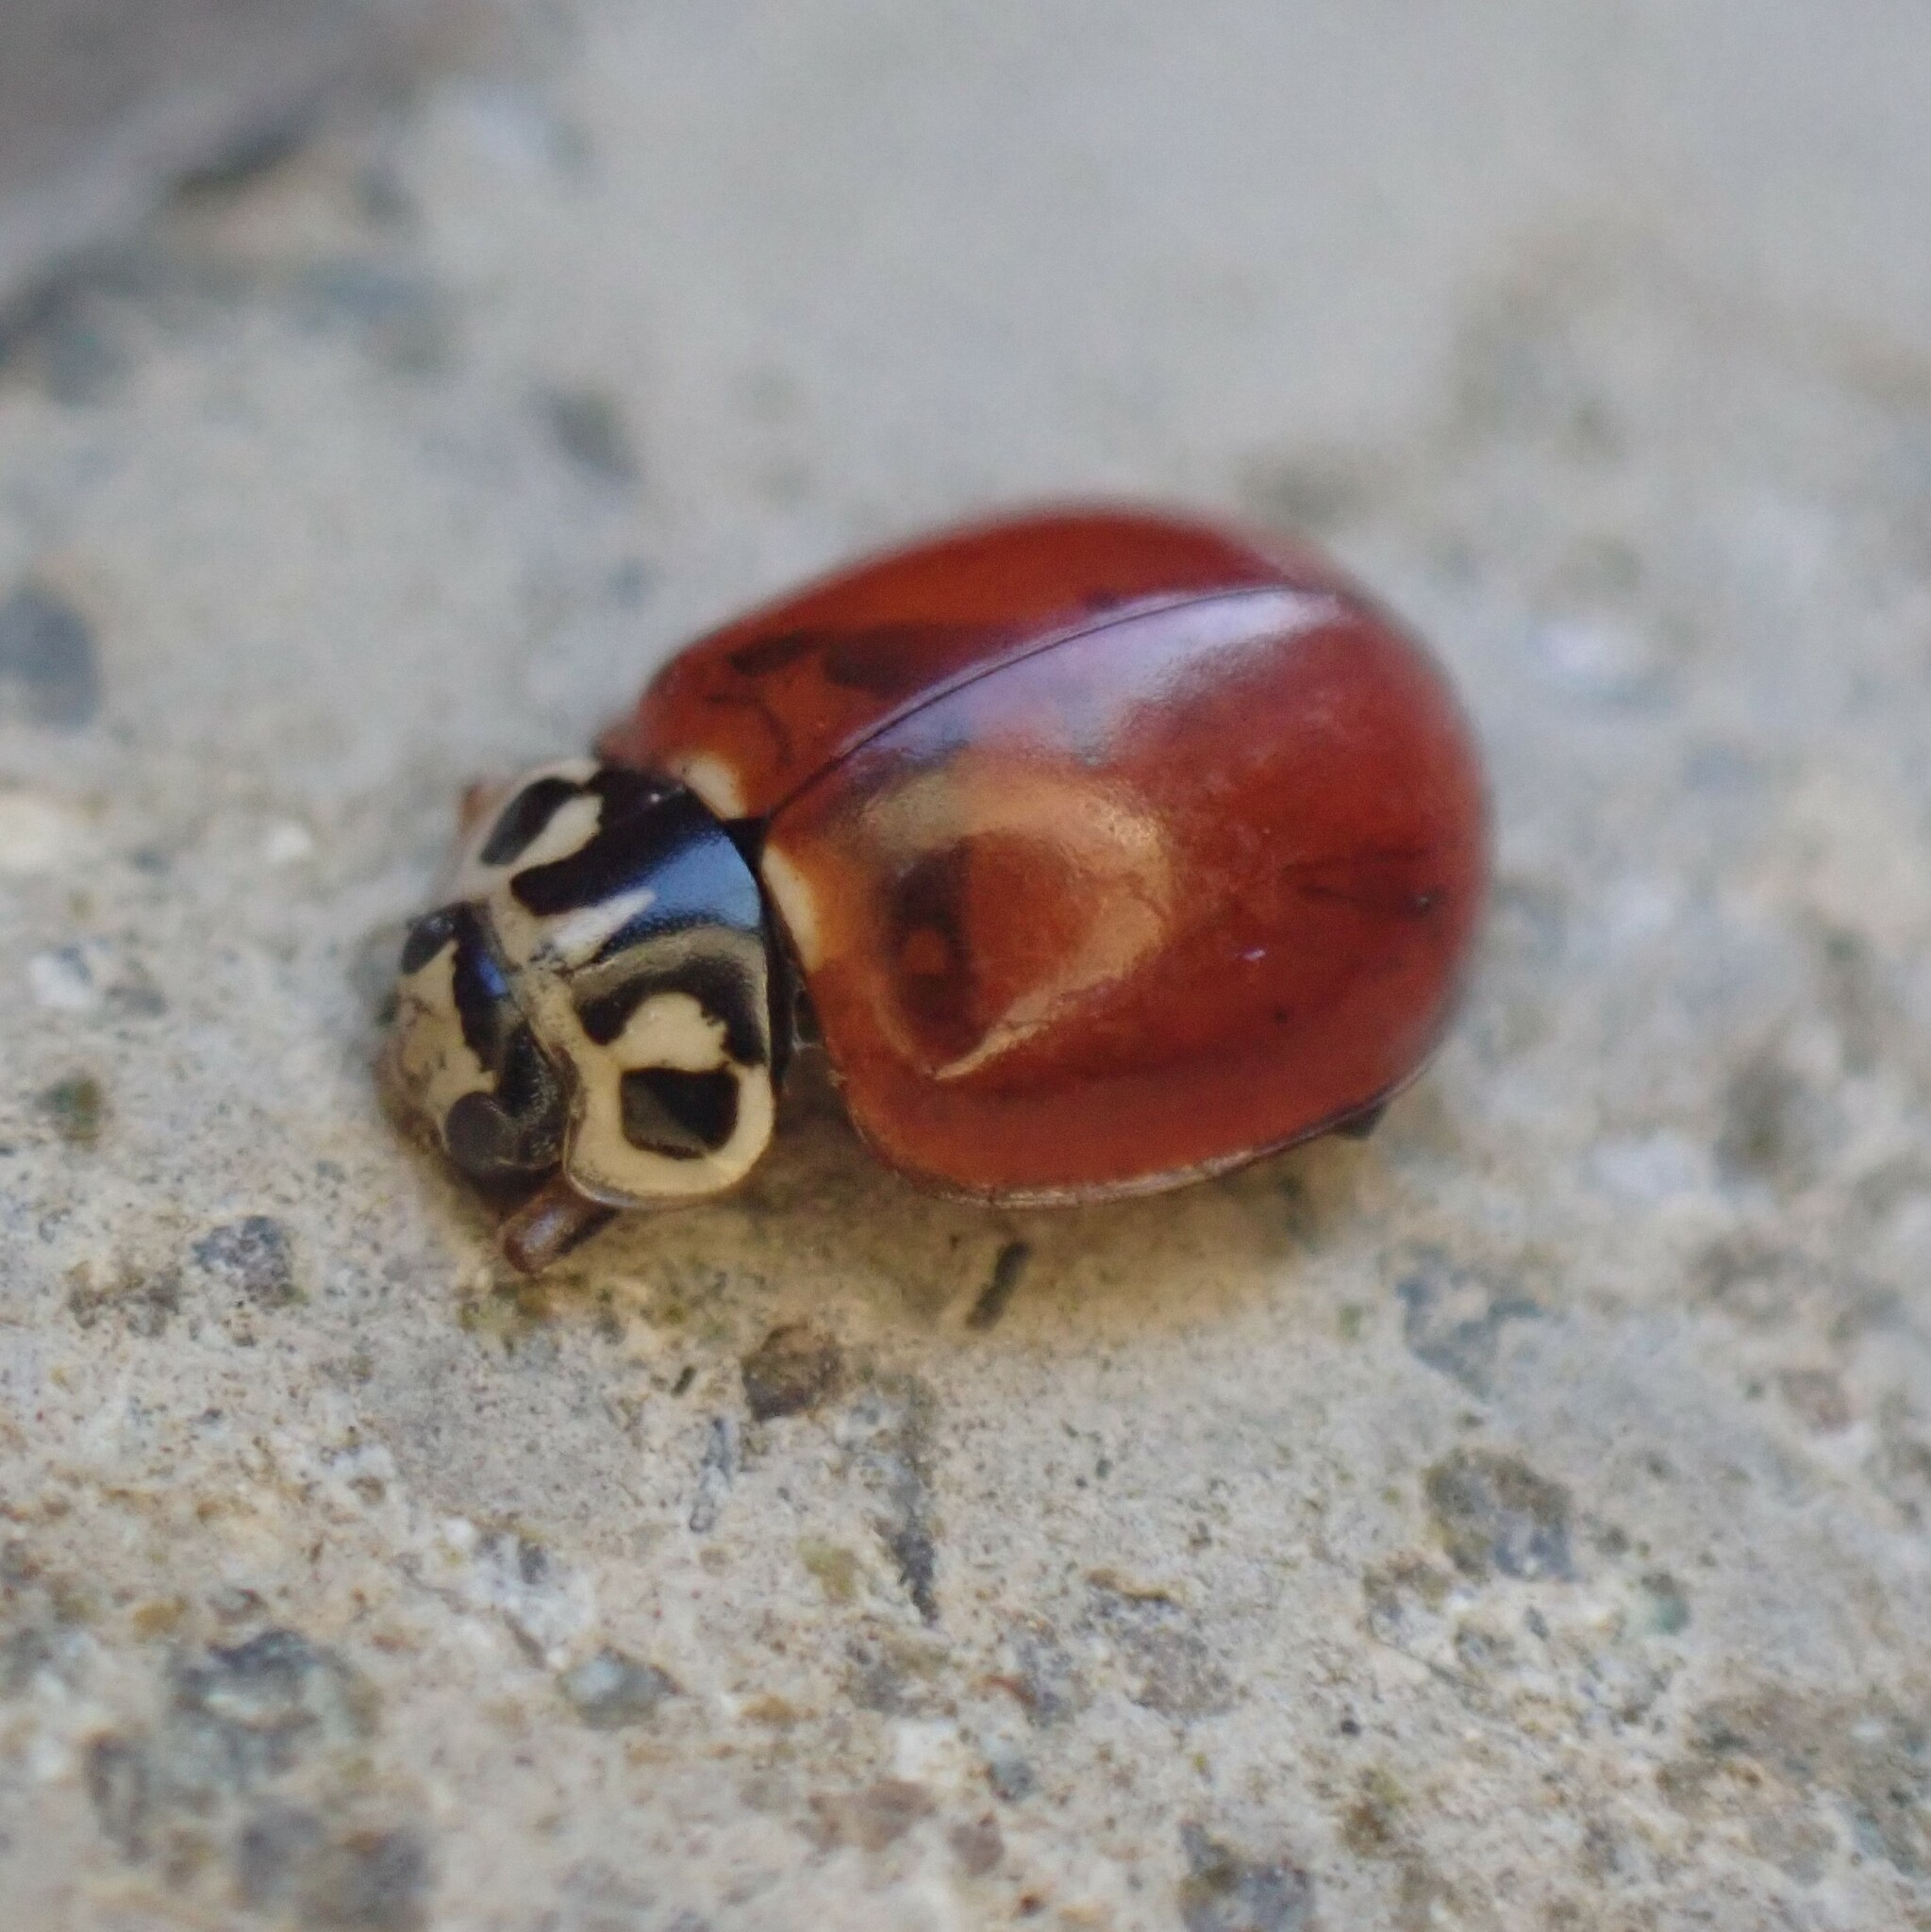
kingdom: Animalia
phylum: Arthropoda
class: Insecta
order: Coleoptera
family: Coccinellidae
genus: Cycloneda
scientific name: Cycloneda polita
